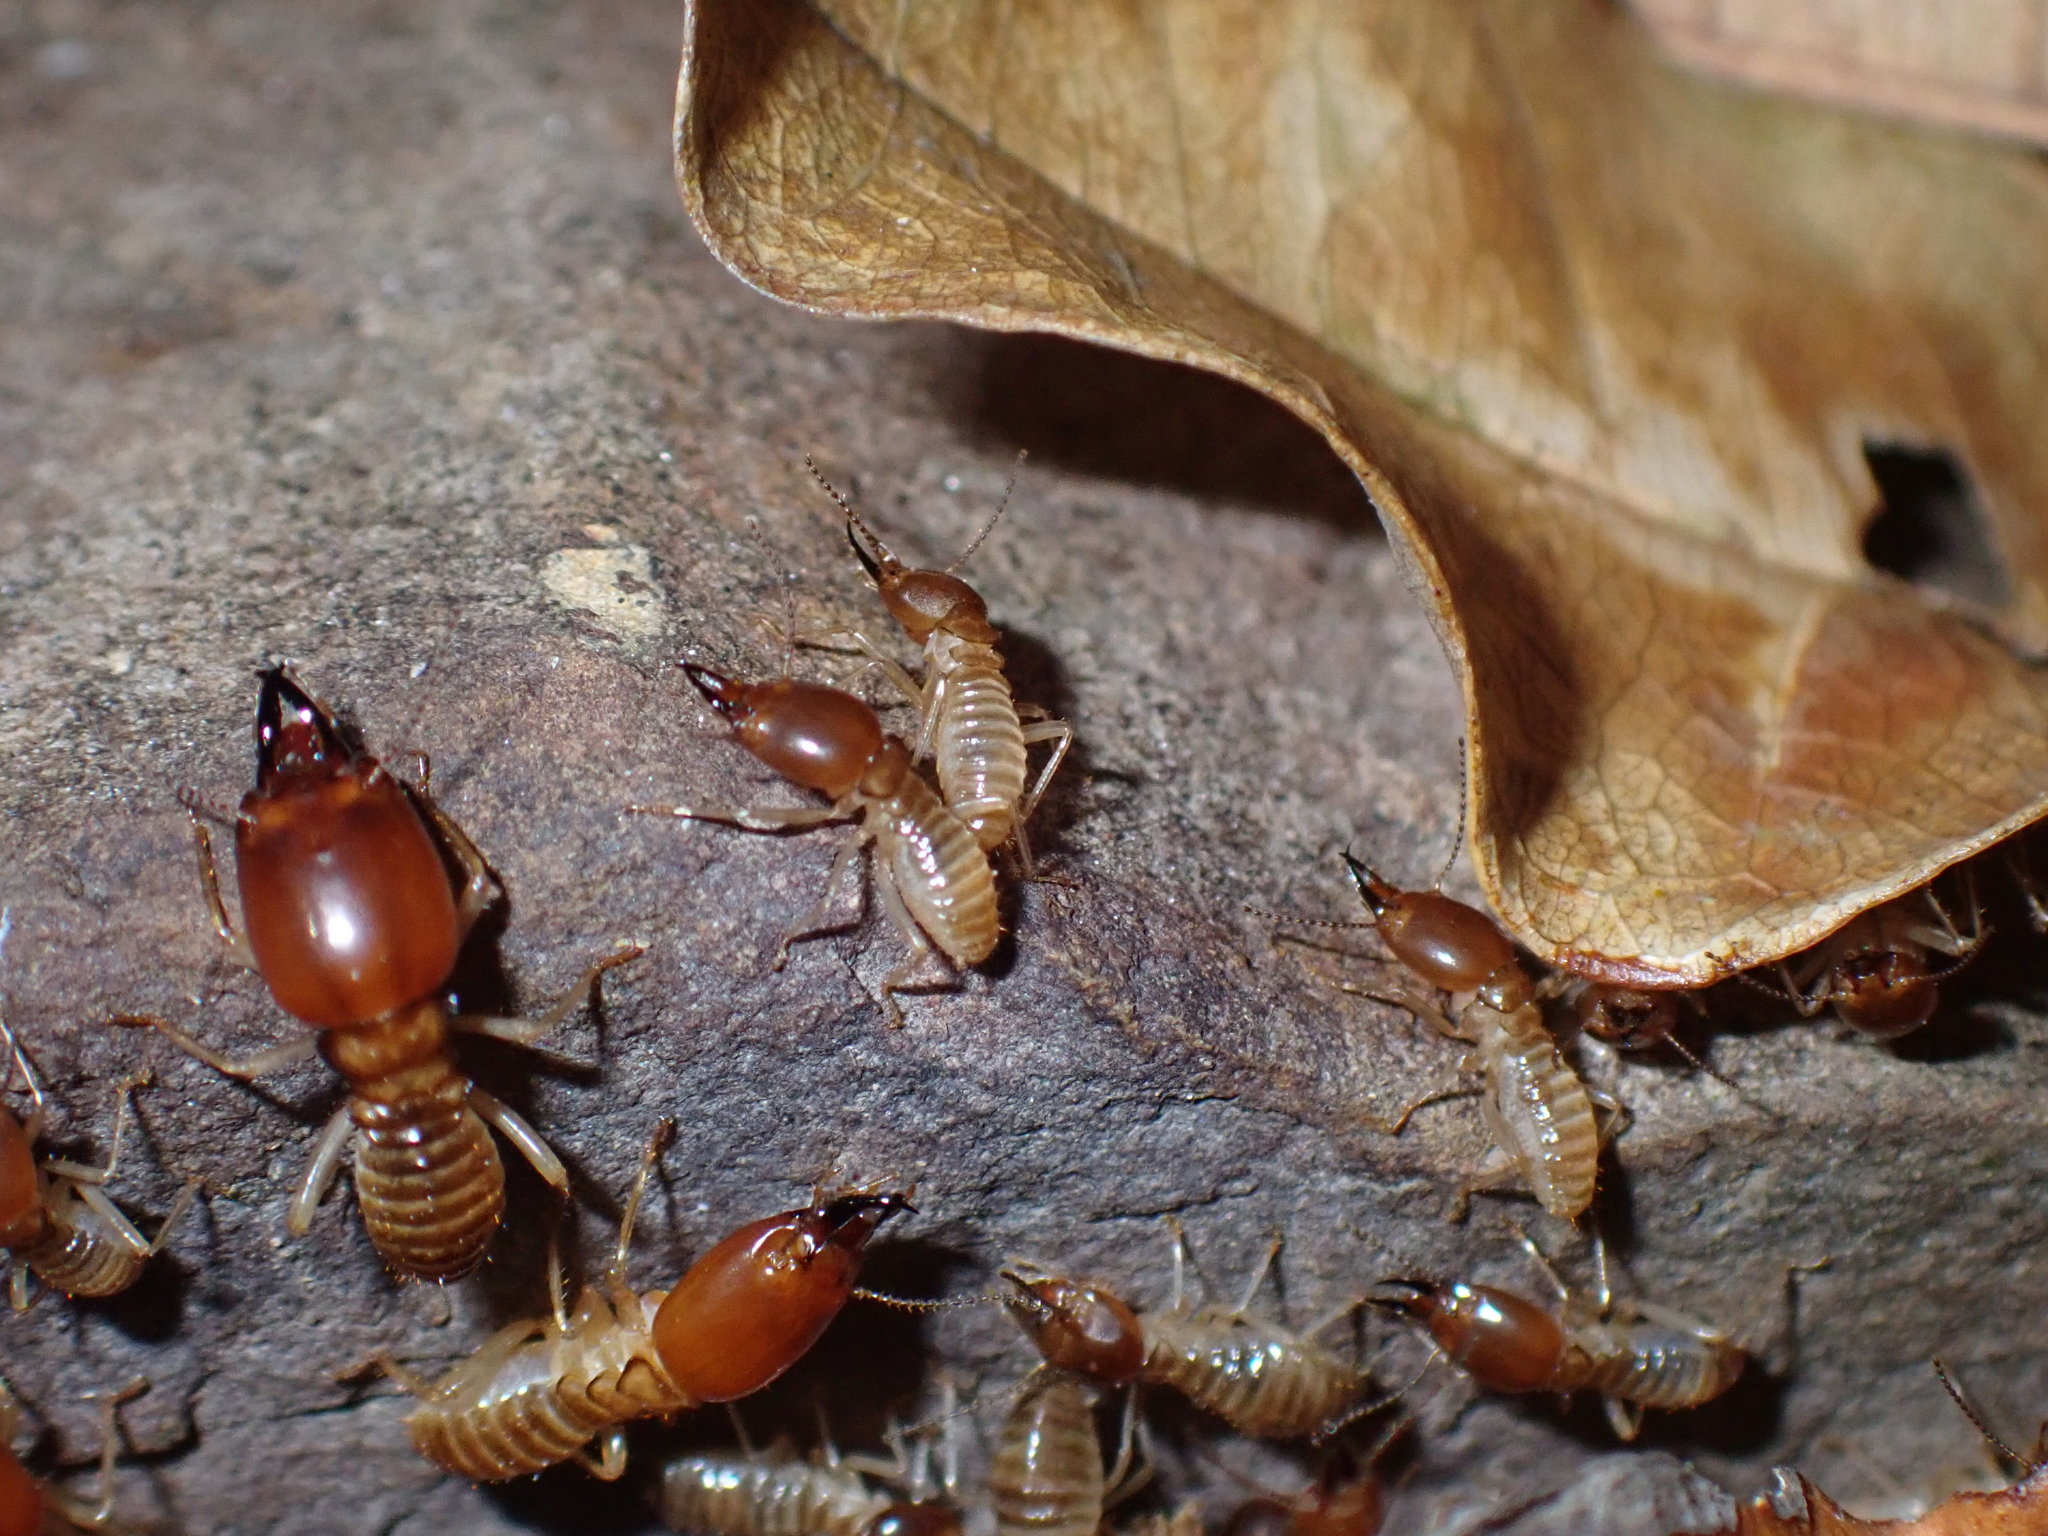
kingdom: Animalia
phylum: Arthropoda
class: Insecta
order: Blattodea
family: Termitidae
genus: Macrotermes
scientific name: Macrotermes chaiglomi
